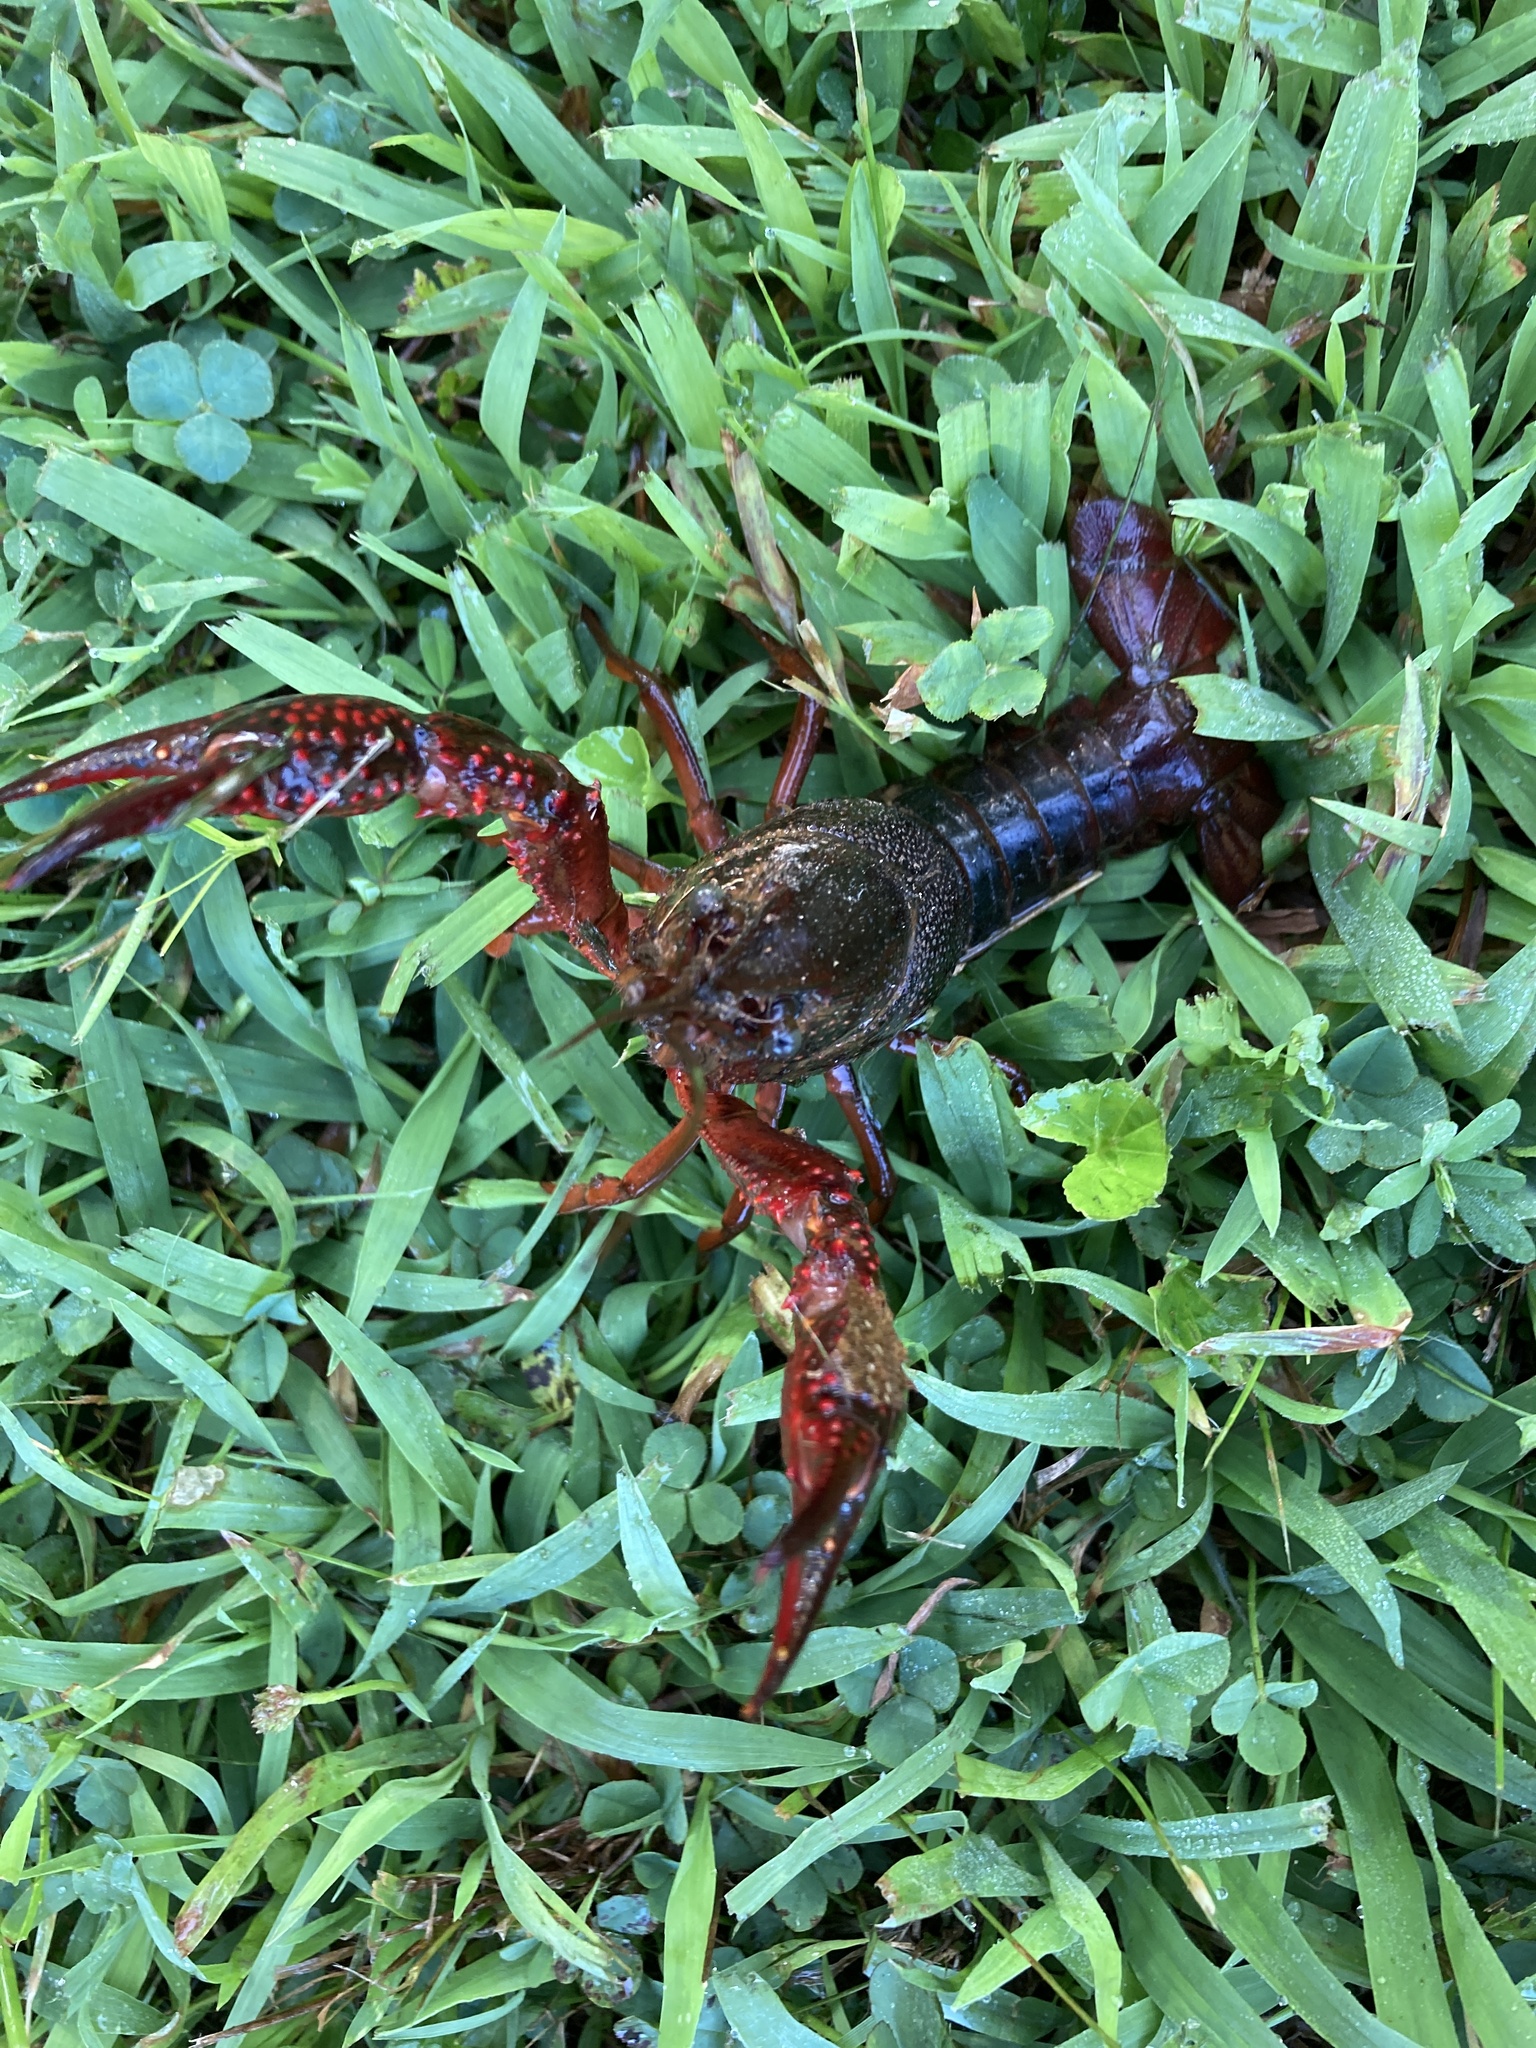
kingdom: Animalia
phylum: Arthropoda
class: Malacostraca
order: Decapoda
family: Cambaridae
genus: Procambarus
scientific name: Procambarus clarkii
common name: Red swamp crayfish
